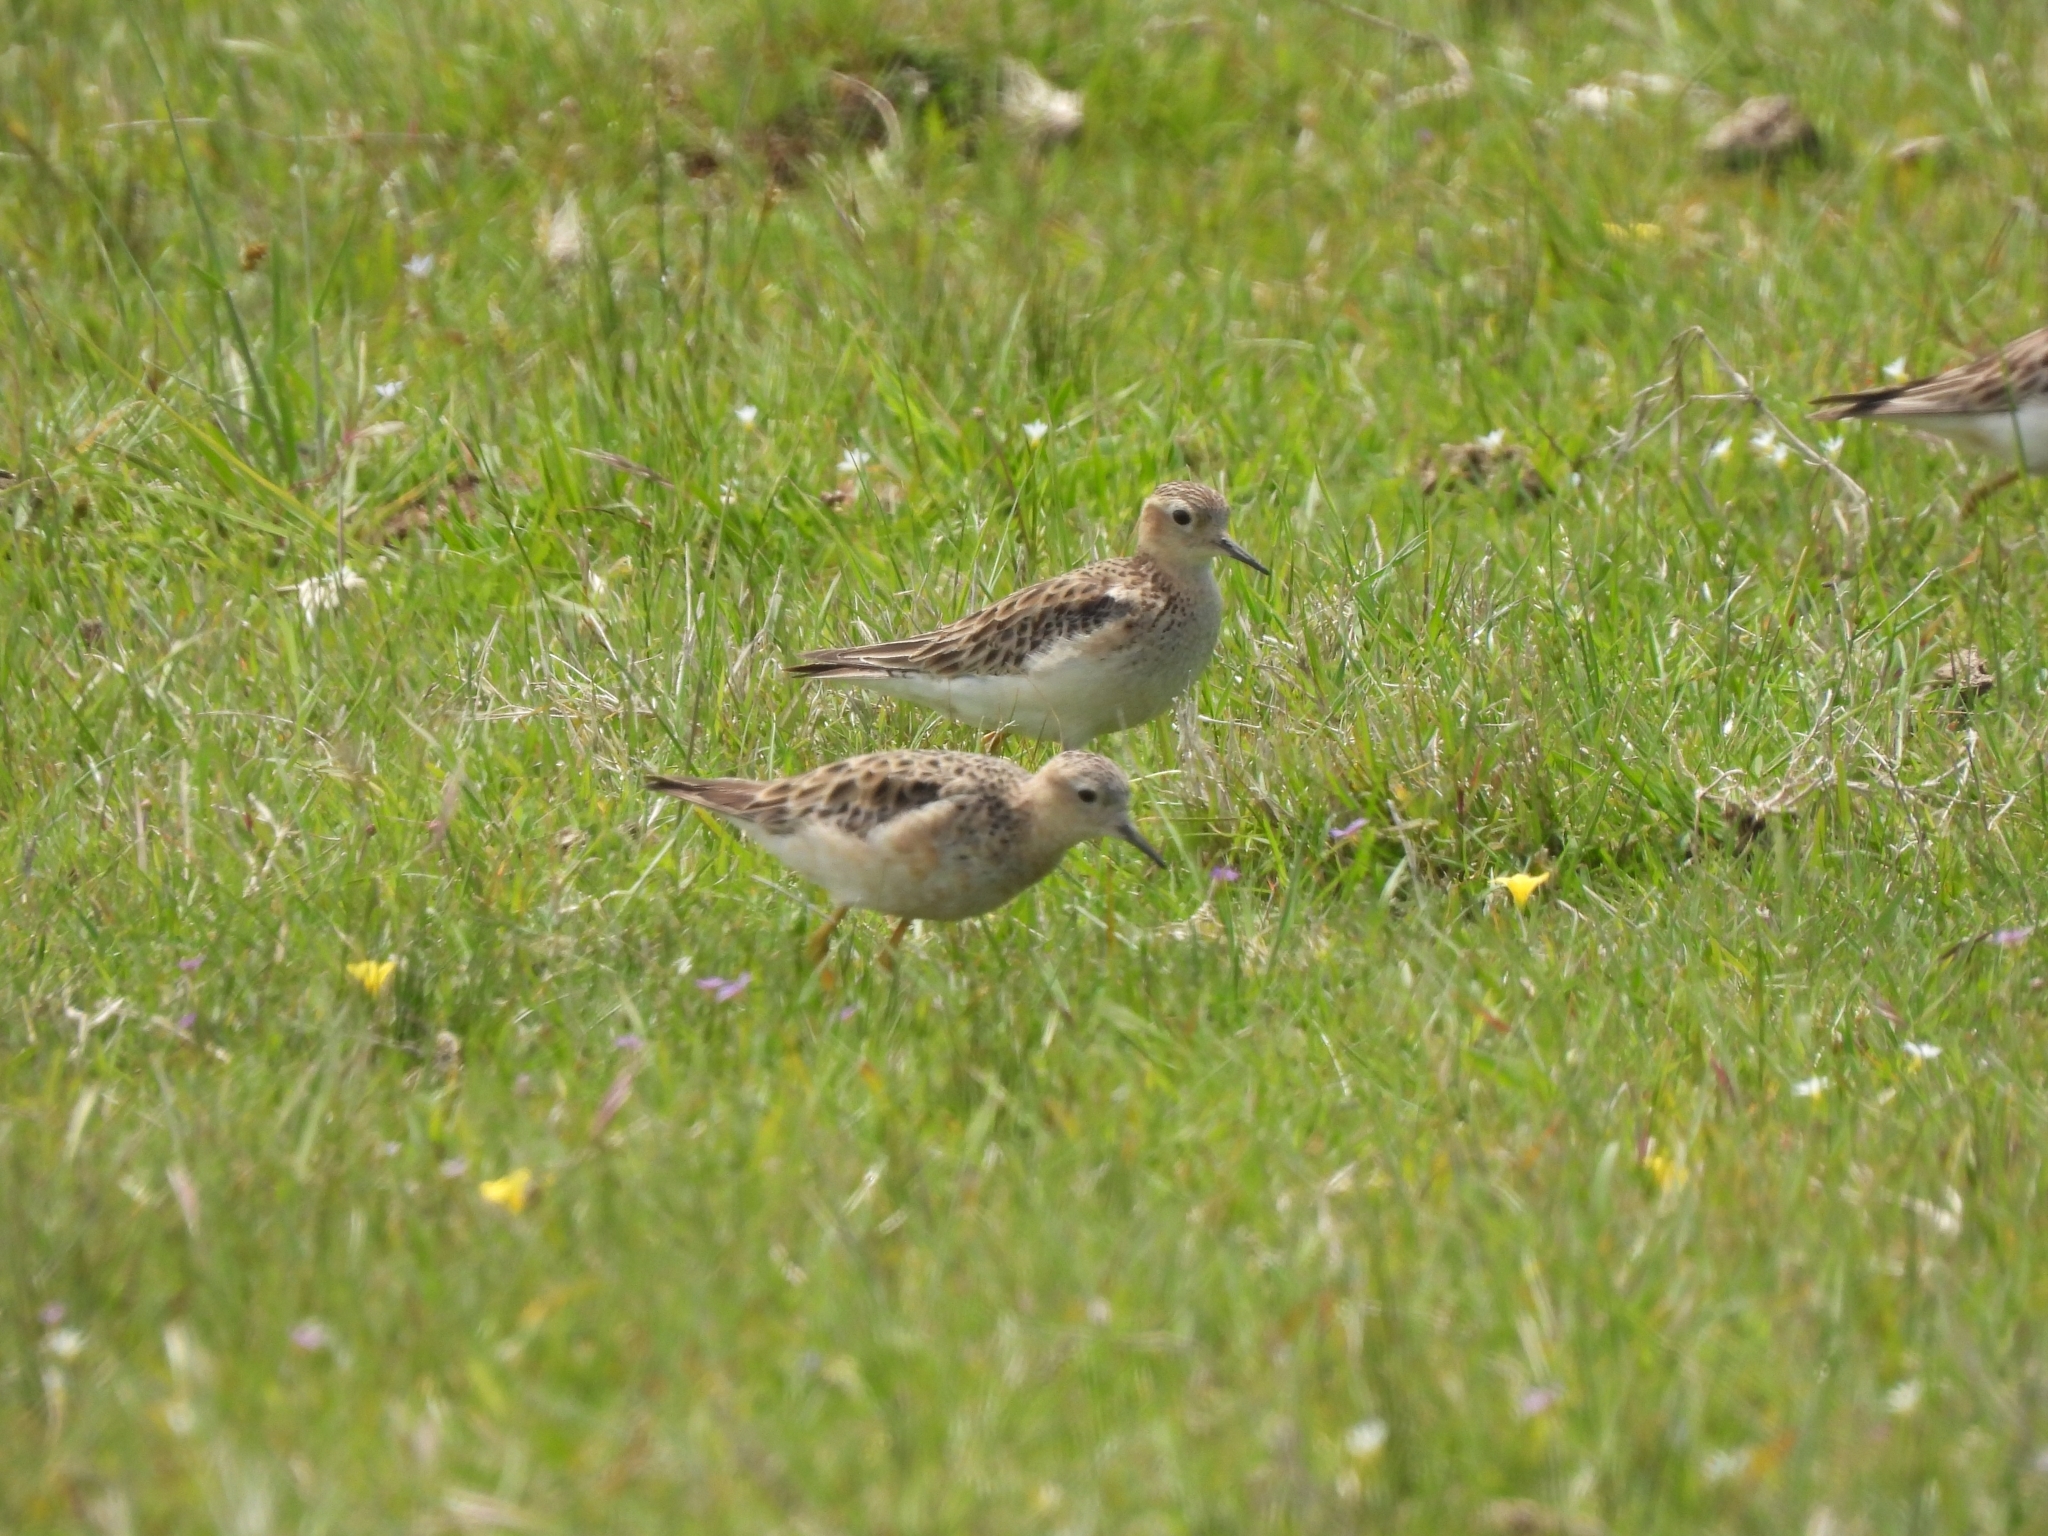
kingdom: Animalia
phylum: Chordata
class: Aves
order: Charadriiformes
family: Scolopacidae
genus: Calidris
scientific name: Calidris subruficollis
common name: Buff-breasted sandpiper
